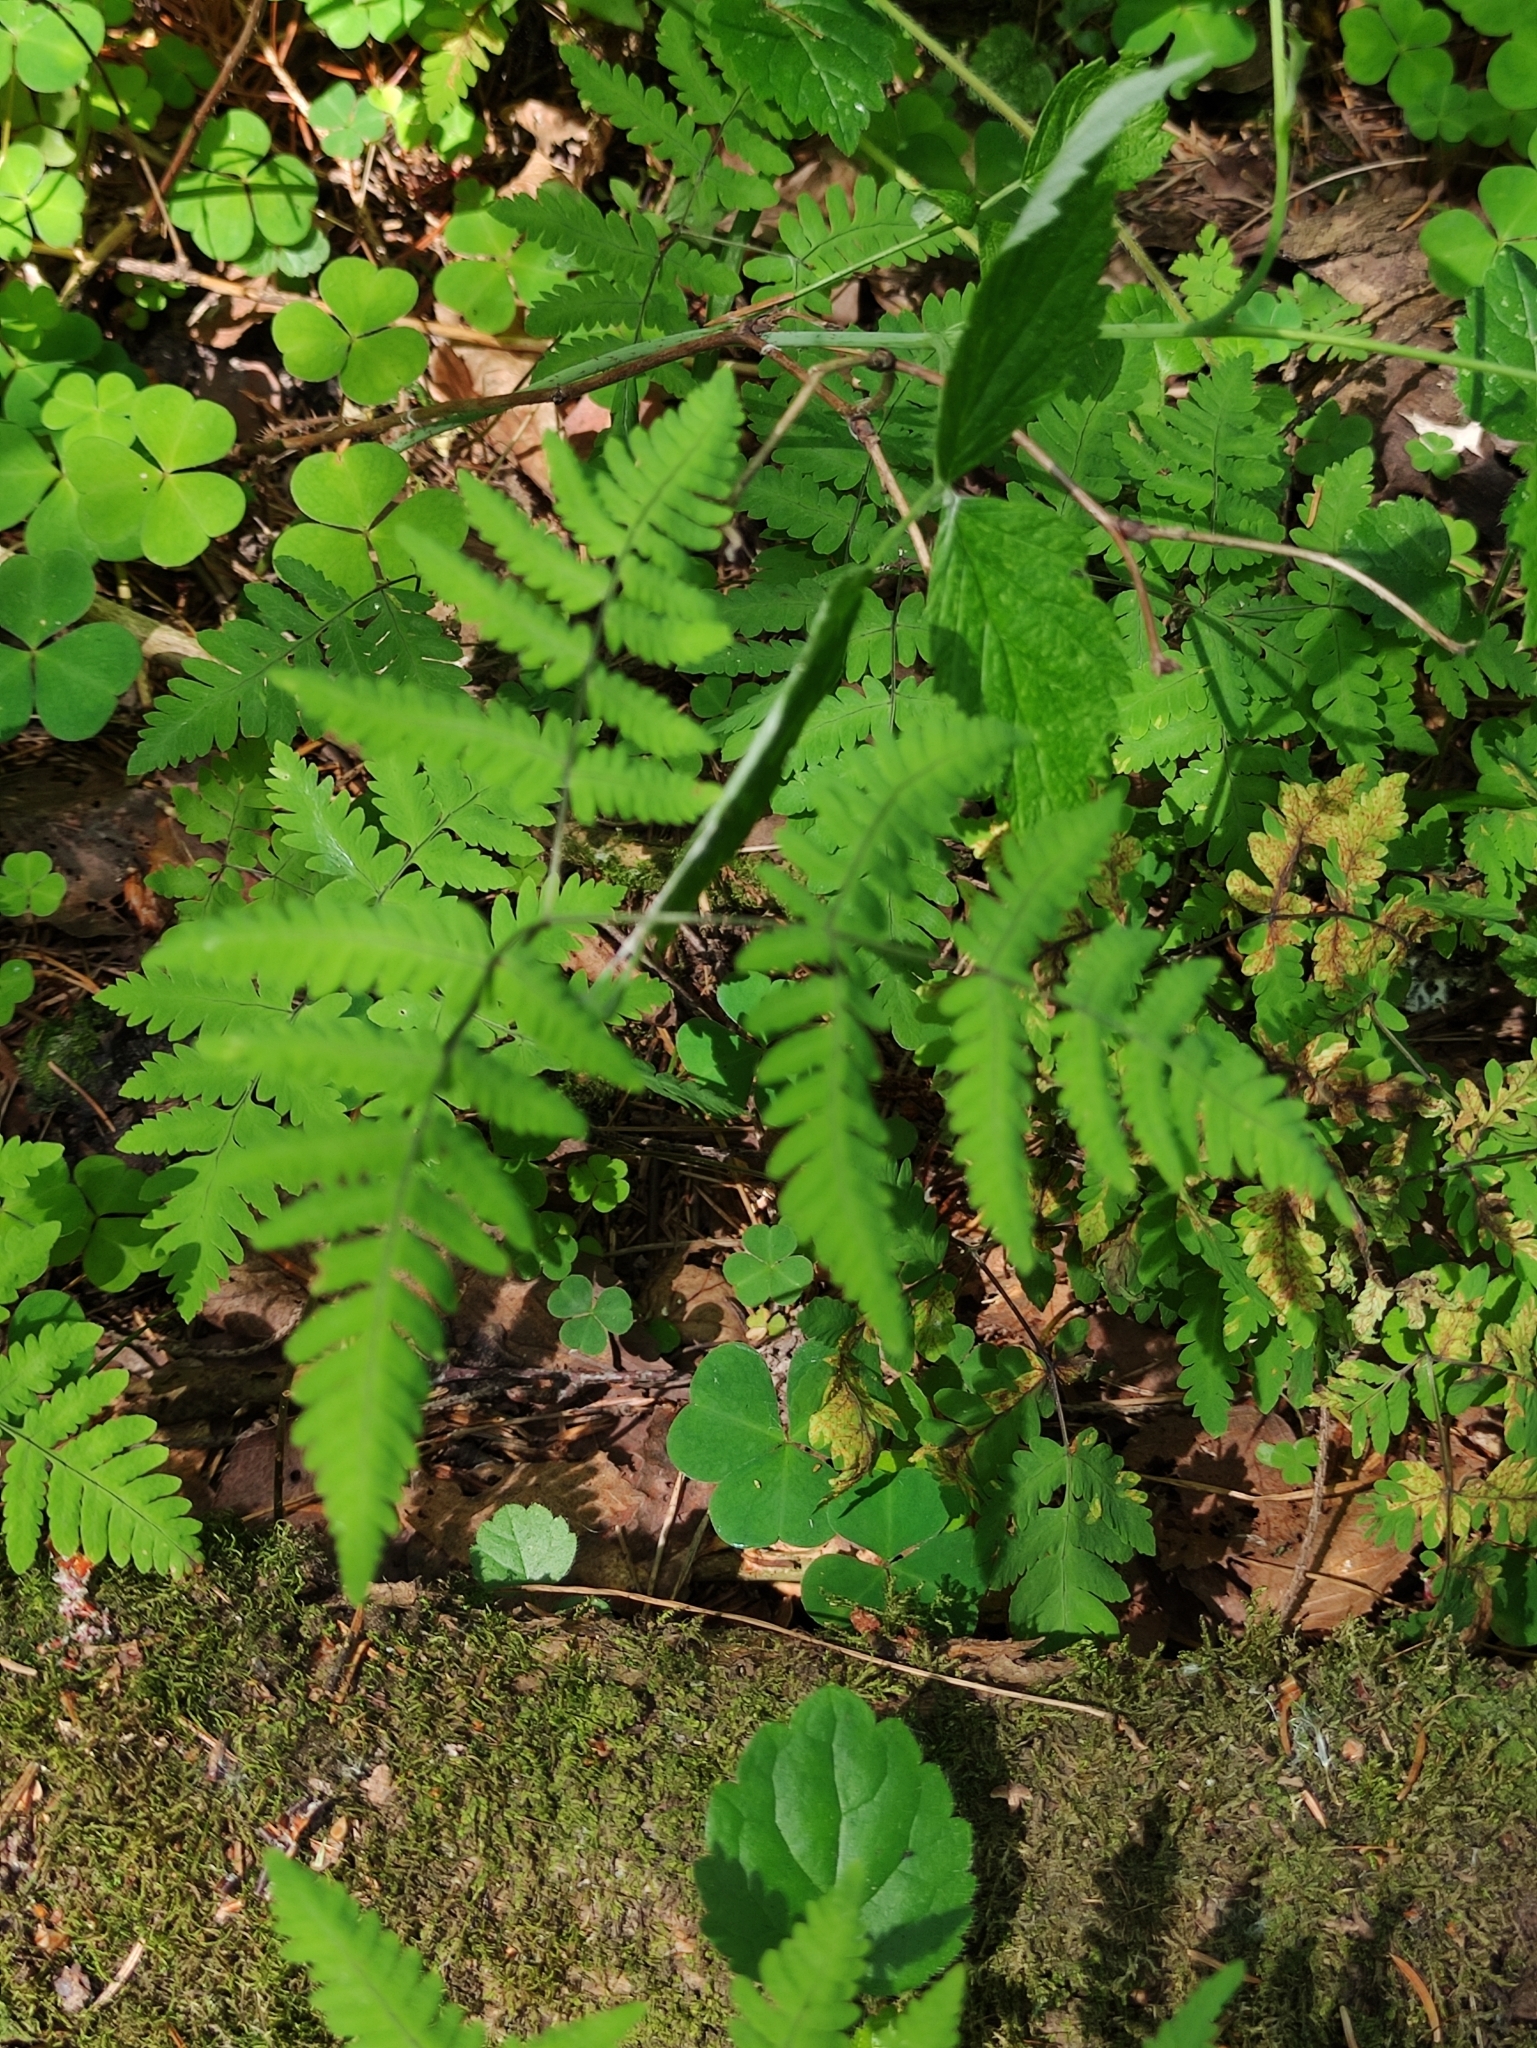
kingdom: Plantae
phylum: Tracheophyta
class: Polypodiopsida
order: Polypodiales
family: Cystopteridaceae
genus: Gymnocarpium
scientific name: Gymnocarpium dryopteris
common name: Oak fern
